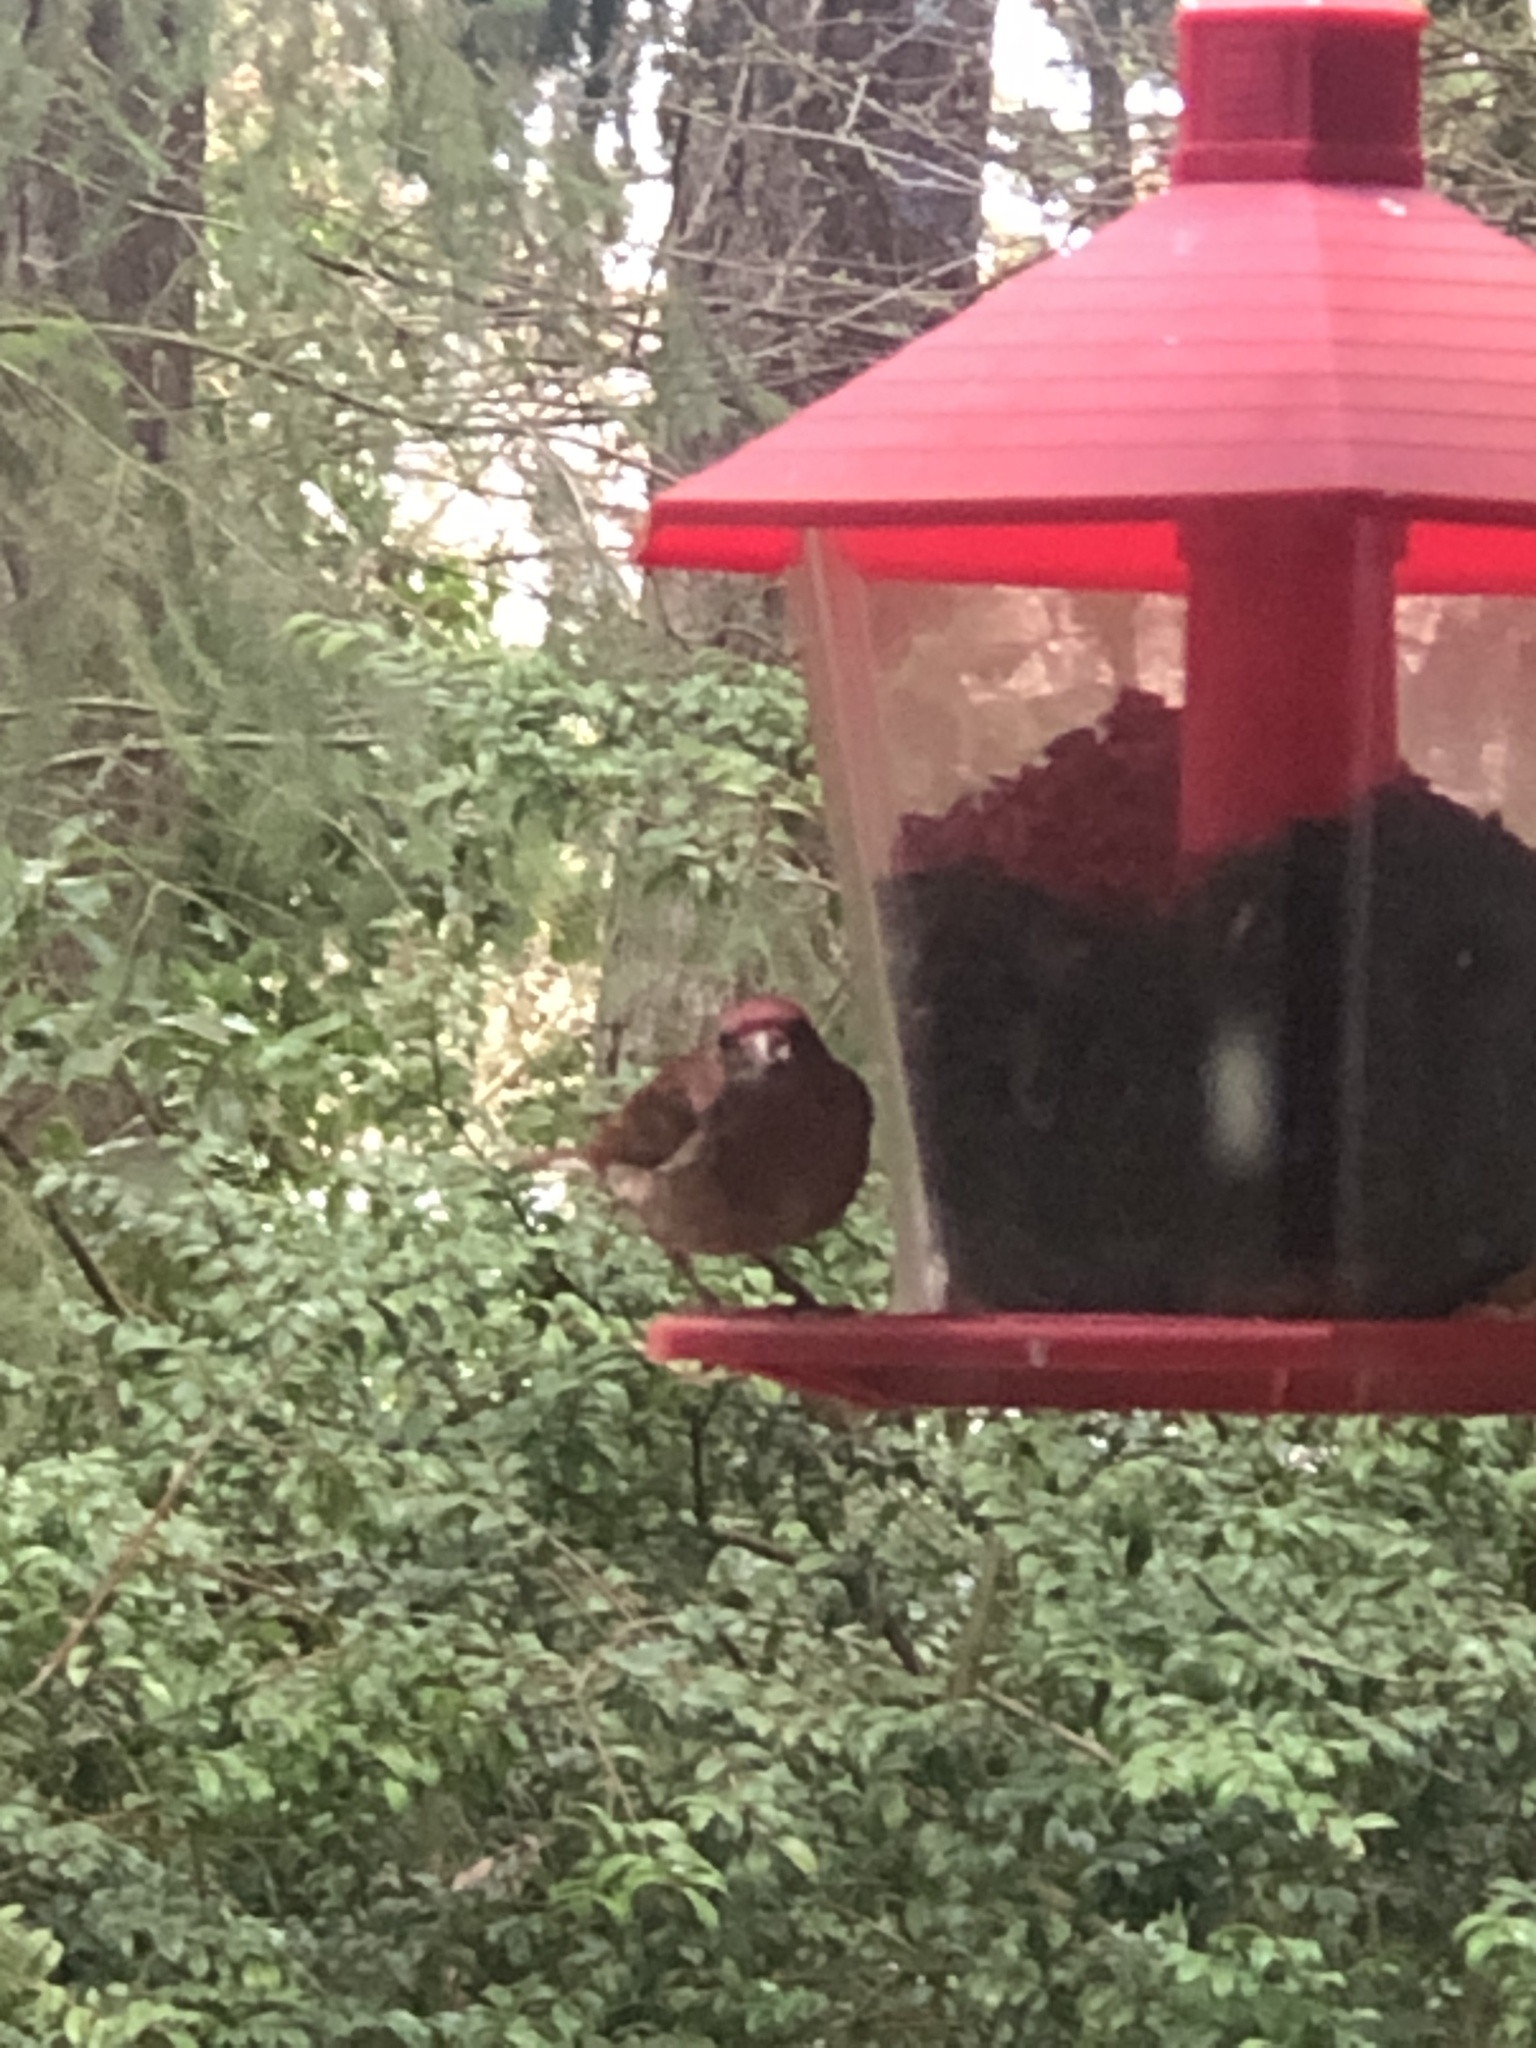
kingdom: Animalia
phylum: Chordata
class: Aves
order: Passeriformes
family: Fringillidae
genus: Haemorhous
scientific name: Haemorhous purpureus
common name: Purple finch
